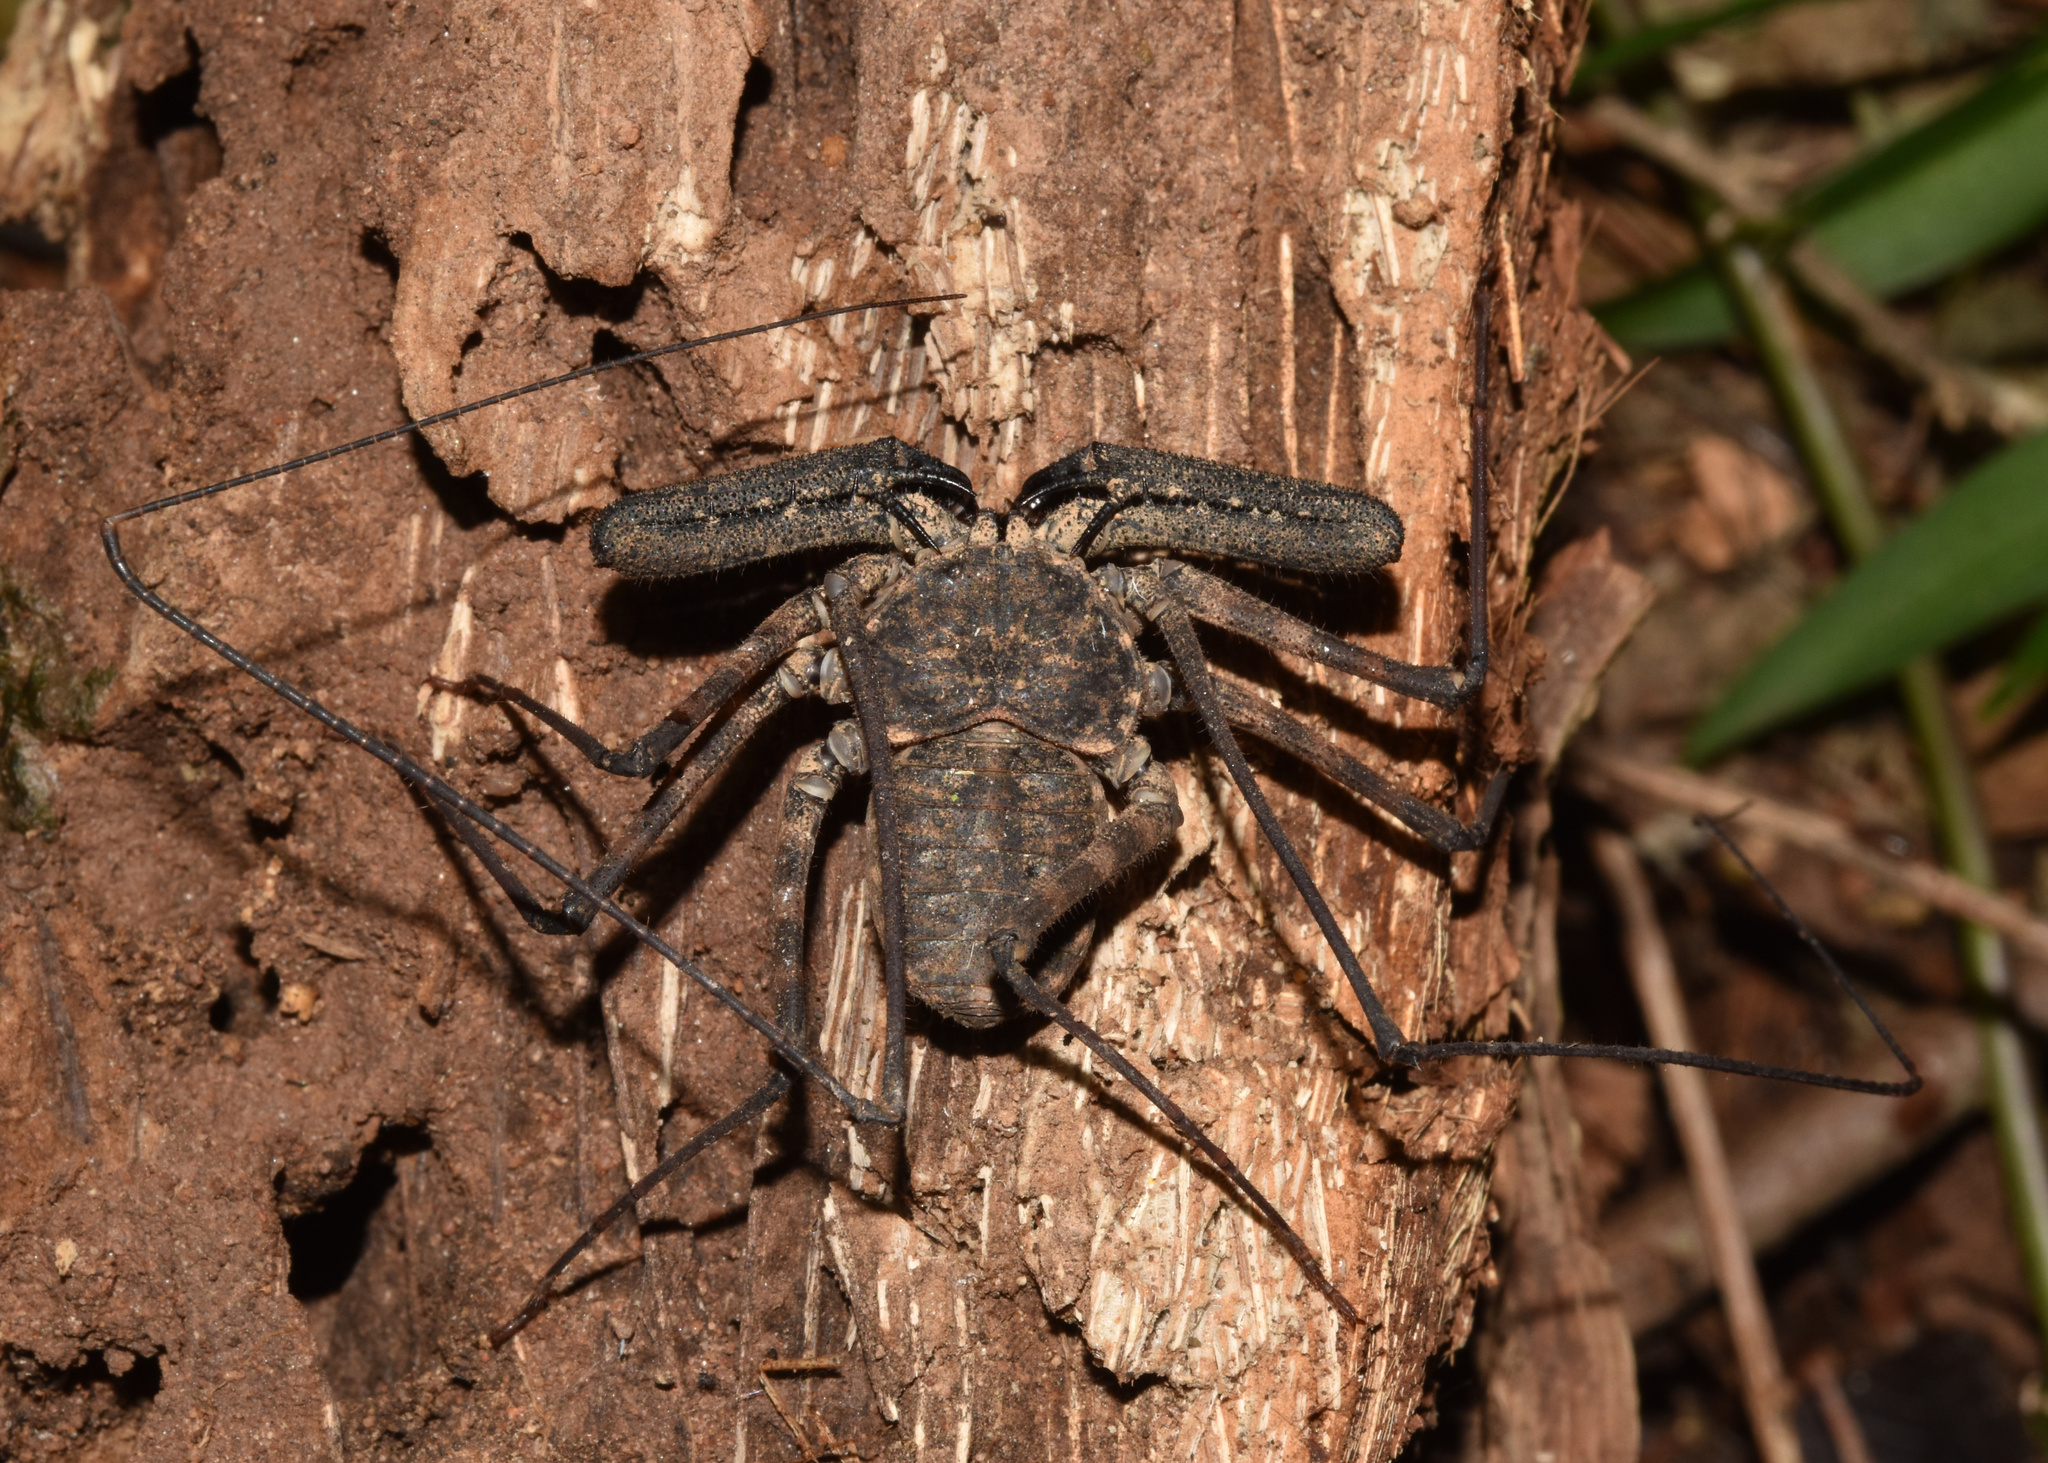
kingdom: Animalia
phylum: Arthropoda
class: Arachnida
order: Amblypygi
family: Phrynichidae
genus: Damon
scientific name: Damon annulatipes
